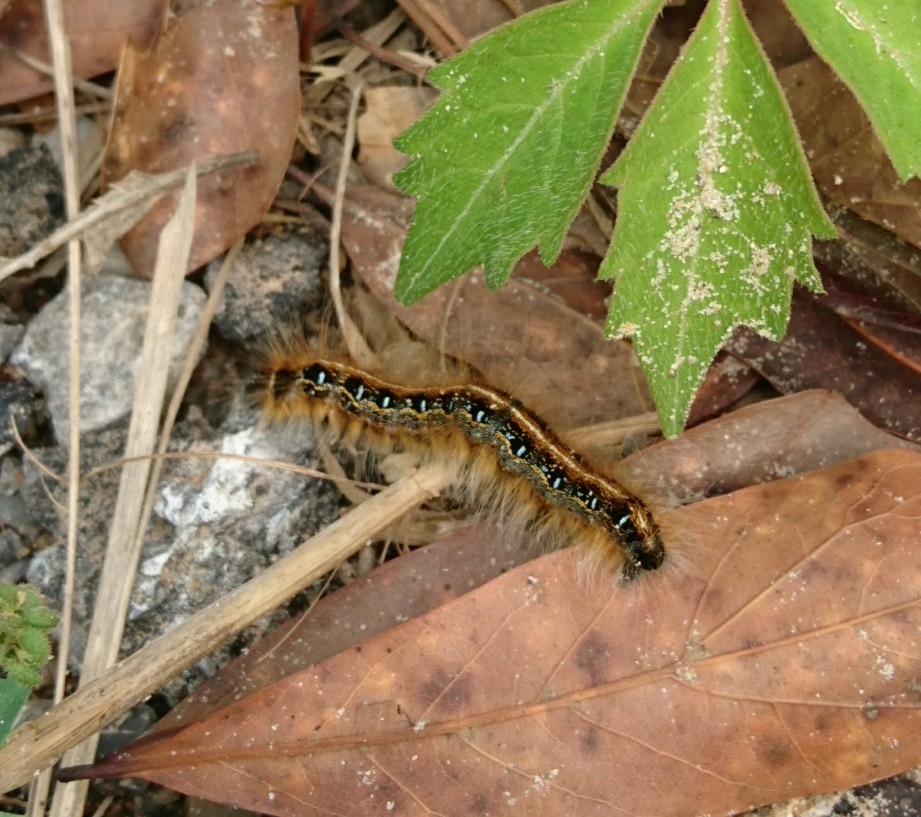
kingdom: Animalia
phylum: Arthropoda
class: Insecta
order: Lepidoptera
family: Lasiocampidae
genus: Malacosoma
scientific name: Malacosoma americana
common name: Eastern tent caterpillar moth
